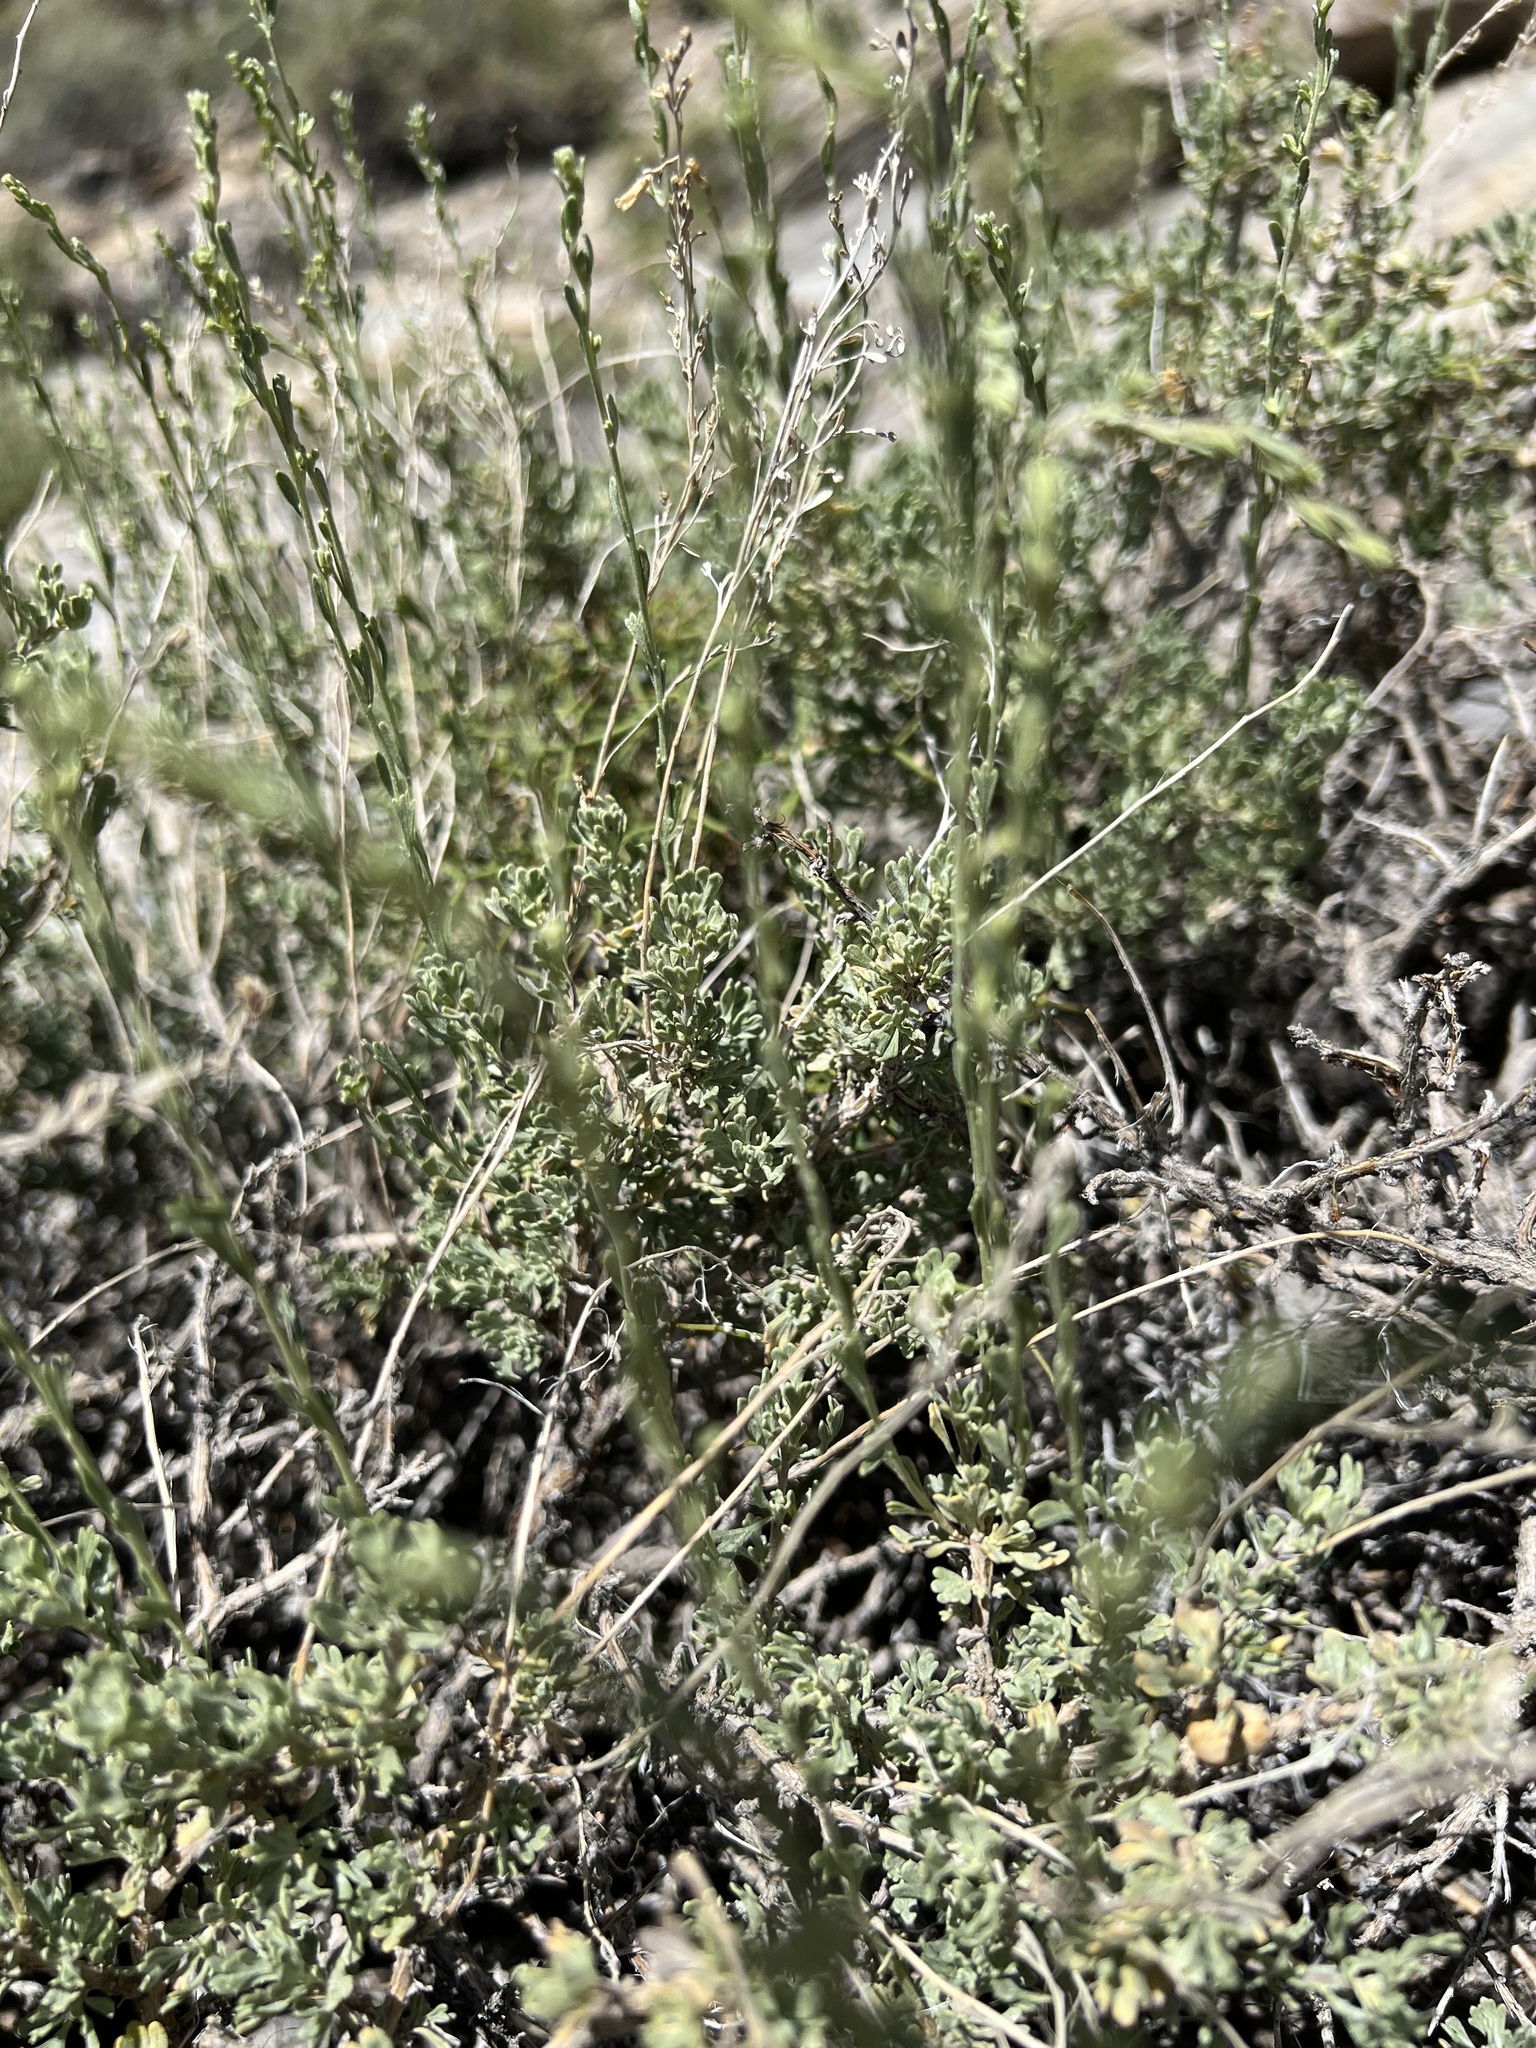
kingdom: Plantae
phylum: Tracheophyta
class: Magnoliopsida
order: Asterales
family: Asteraceae
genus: Artemisia
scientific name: Artemisia nova
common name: Black-sage
